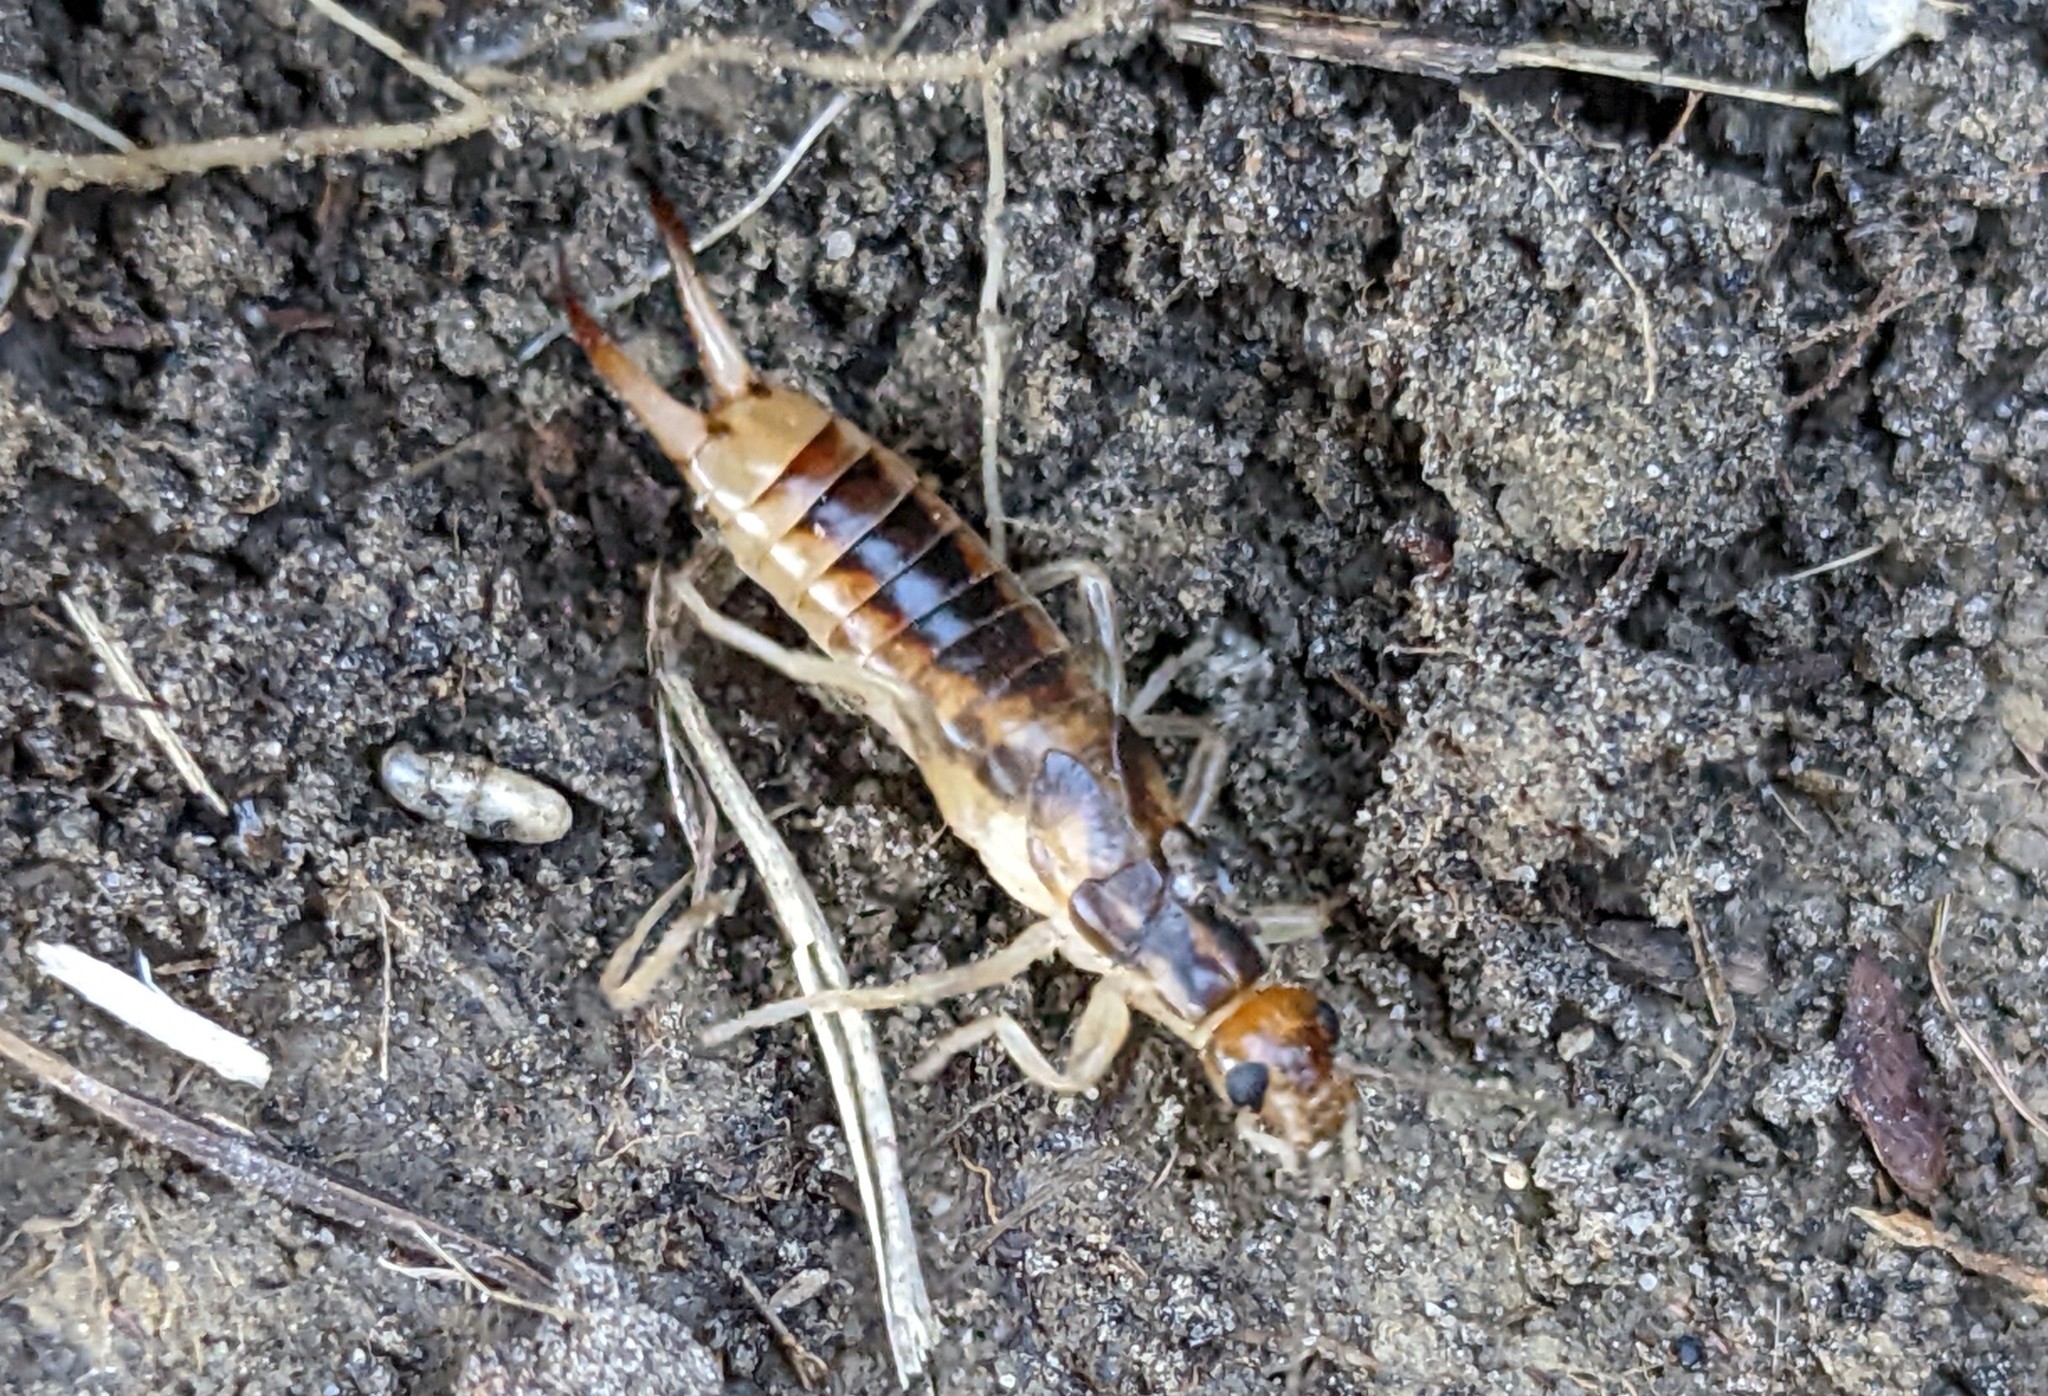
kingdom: Animalia
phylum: Arthropoda
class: Insecta
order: Dermaptera
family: Labiduridae
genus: Labidura
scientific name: Labidura riparia
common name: Striped earwig
